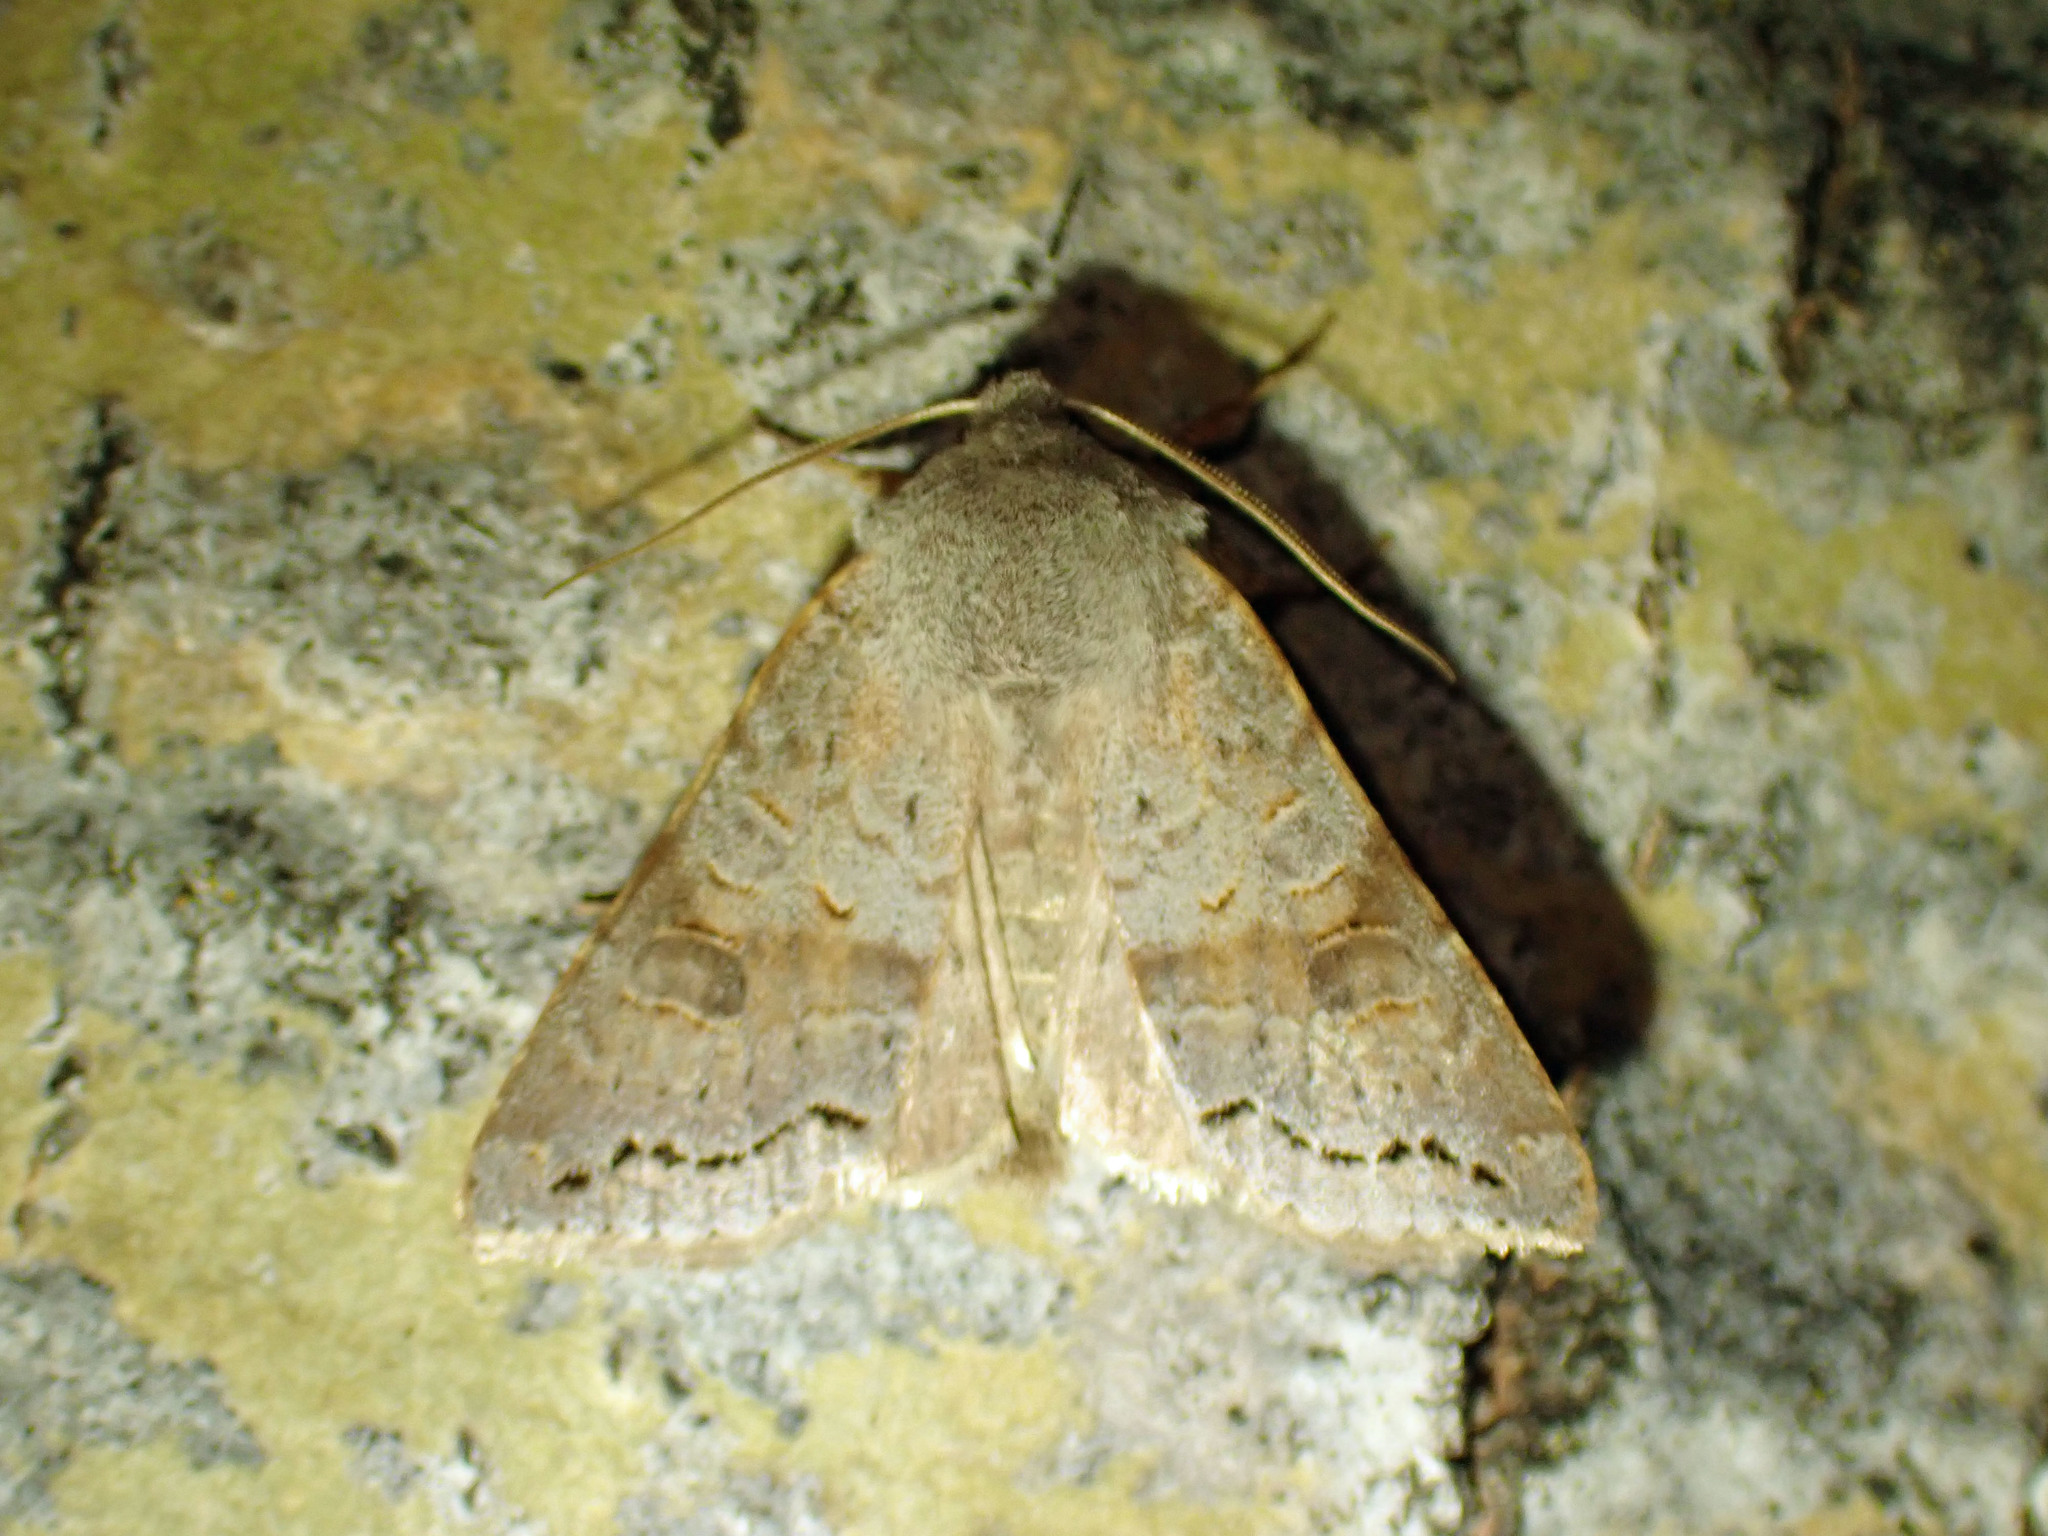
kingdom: Animalia
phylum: Arthropoda
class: Insecta
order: Lepidoptera
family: Noctuidae
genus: Orthosia
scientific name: Orthosia revicta
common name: Rusty whitesided caterpillar
